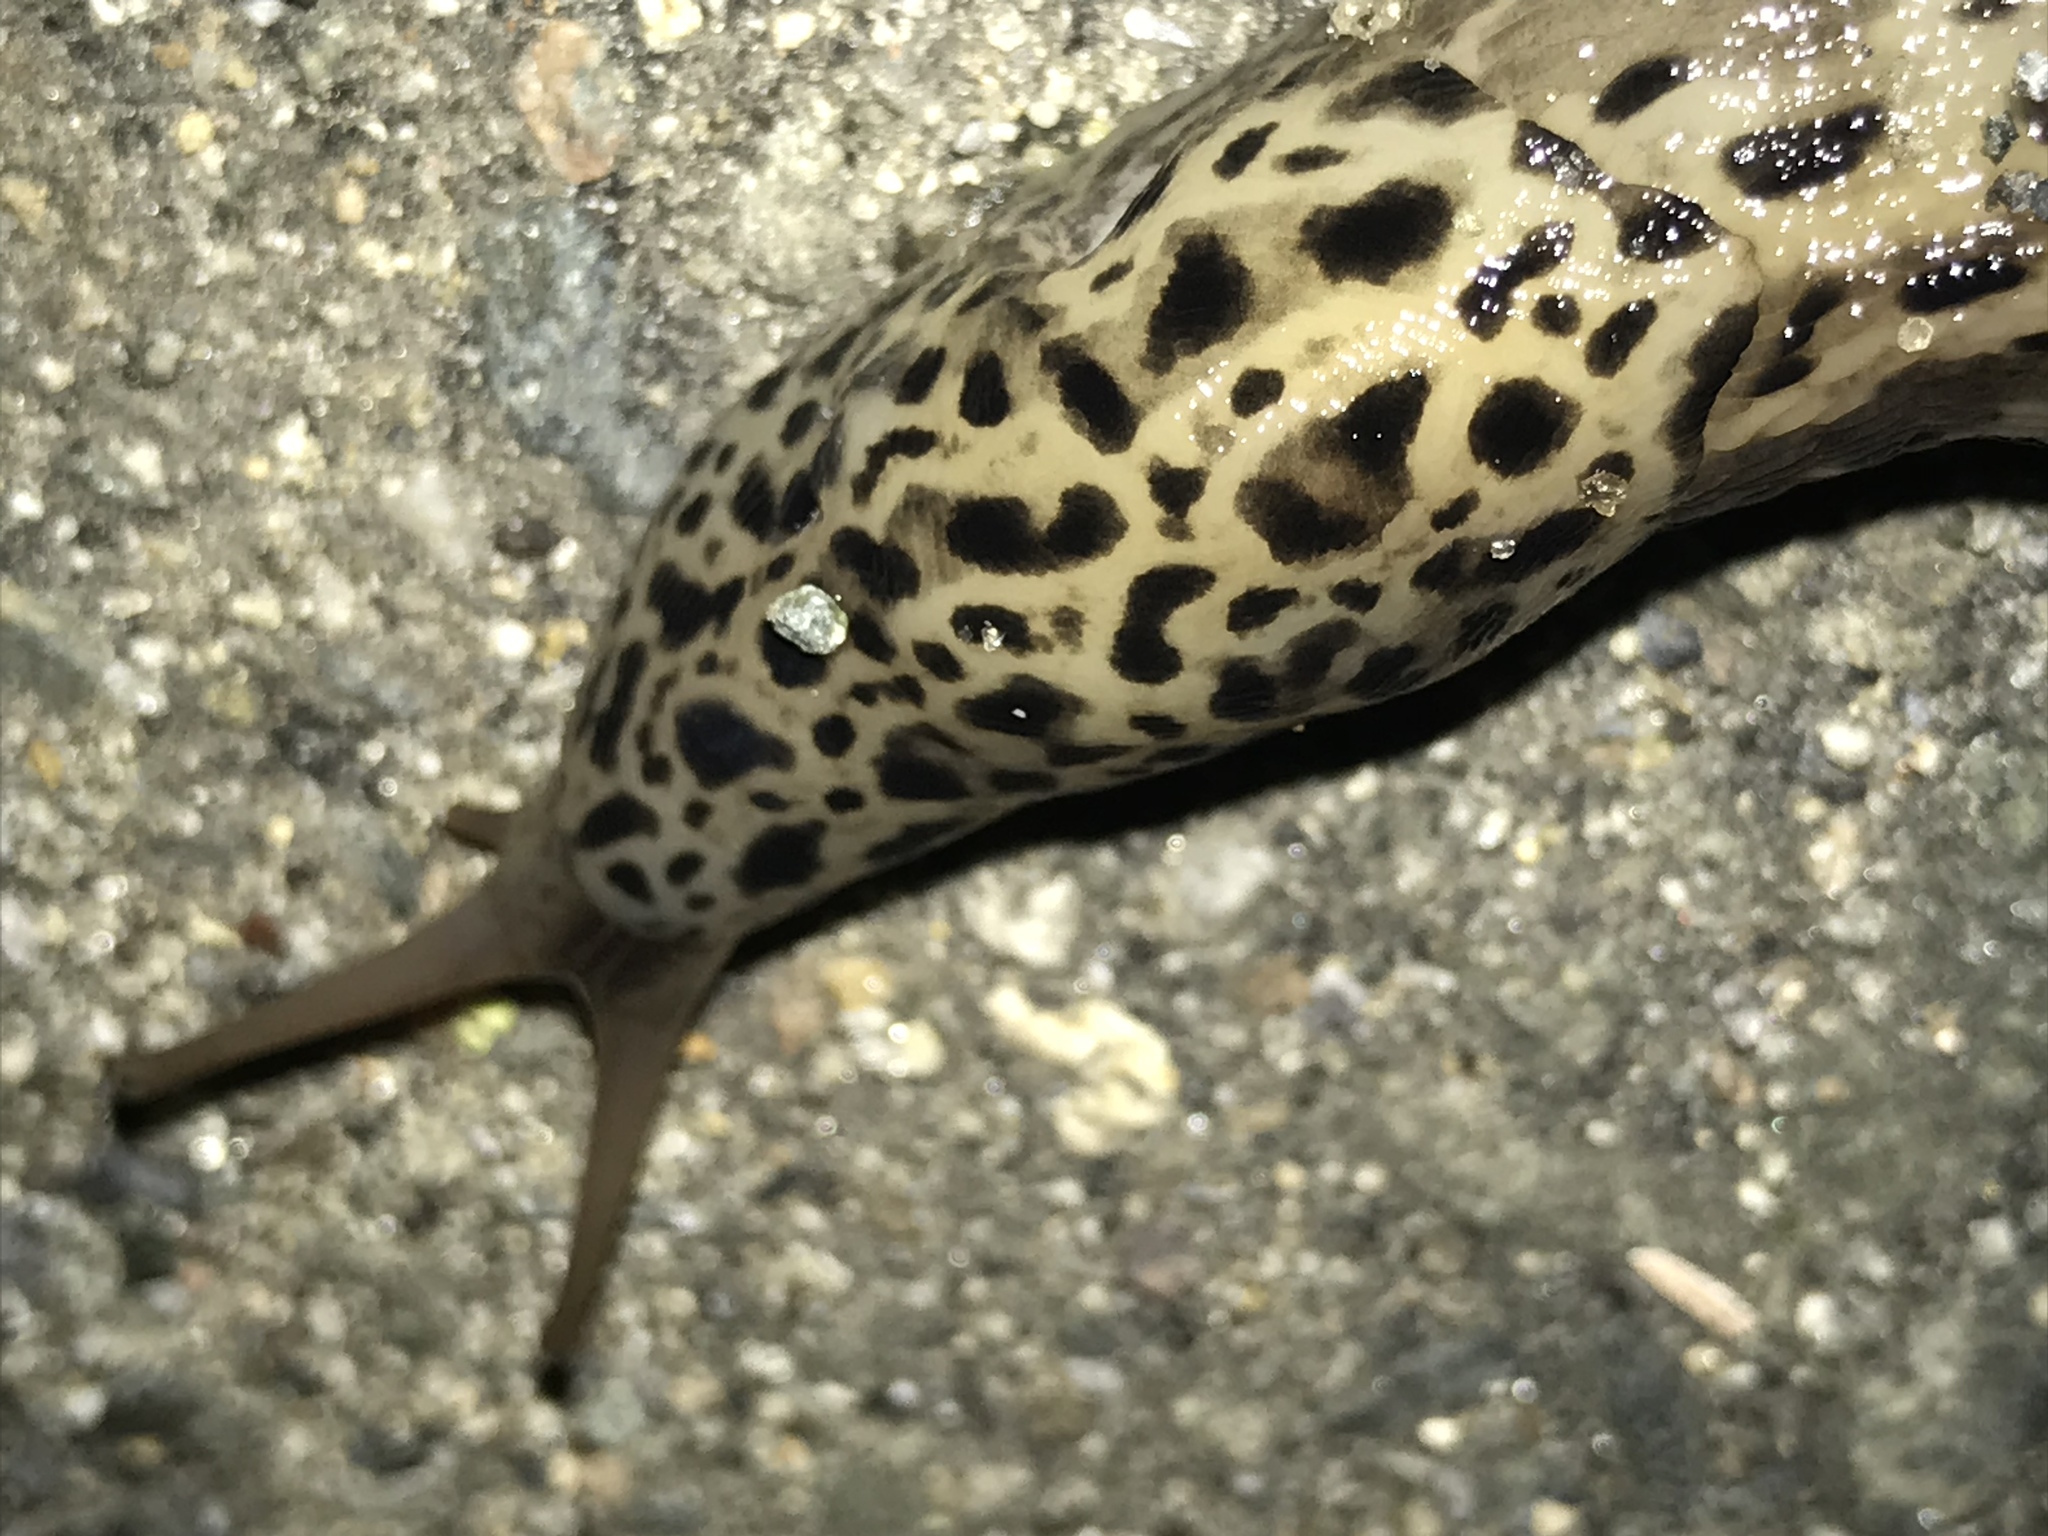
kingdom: Animalia
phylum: Mollusca
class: Gastropoda
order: Stylommatophora
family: Limacidae
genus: Limax
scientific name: Limax maximus
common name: Great grey slug
